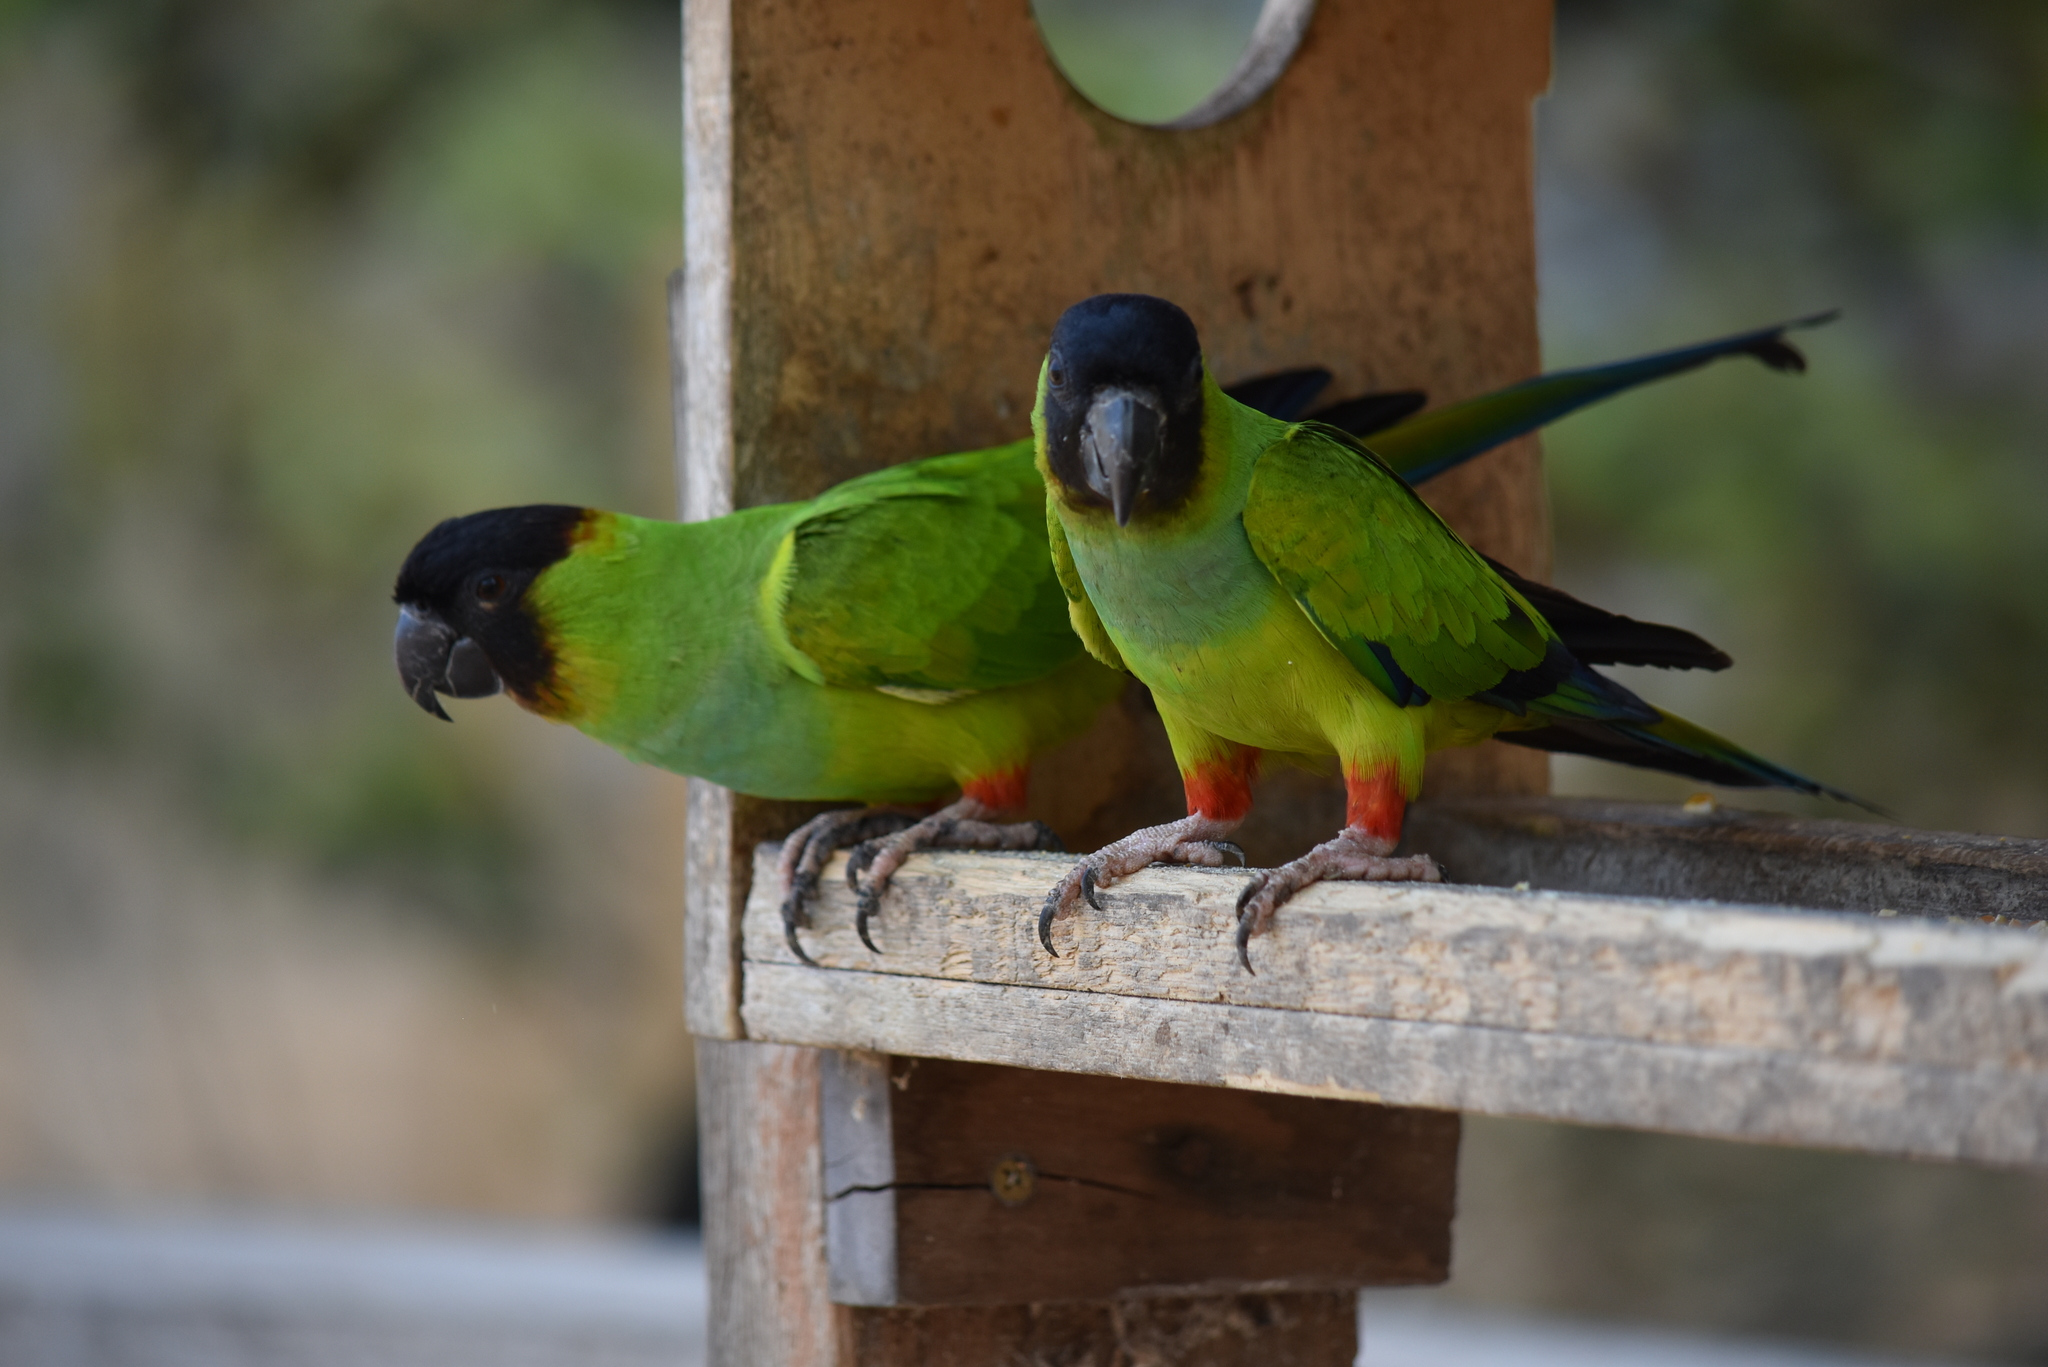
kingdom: Animalia
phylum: Chordata
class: Aves
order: Psittaciformes
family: Psittacidae
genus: Nandayus
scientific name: Nandayus nenday
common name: Nanday parakeet
